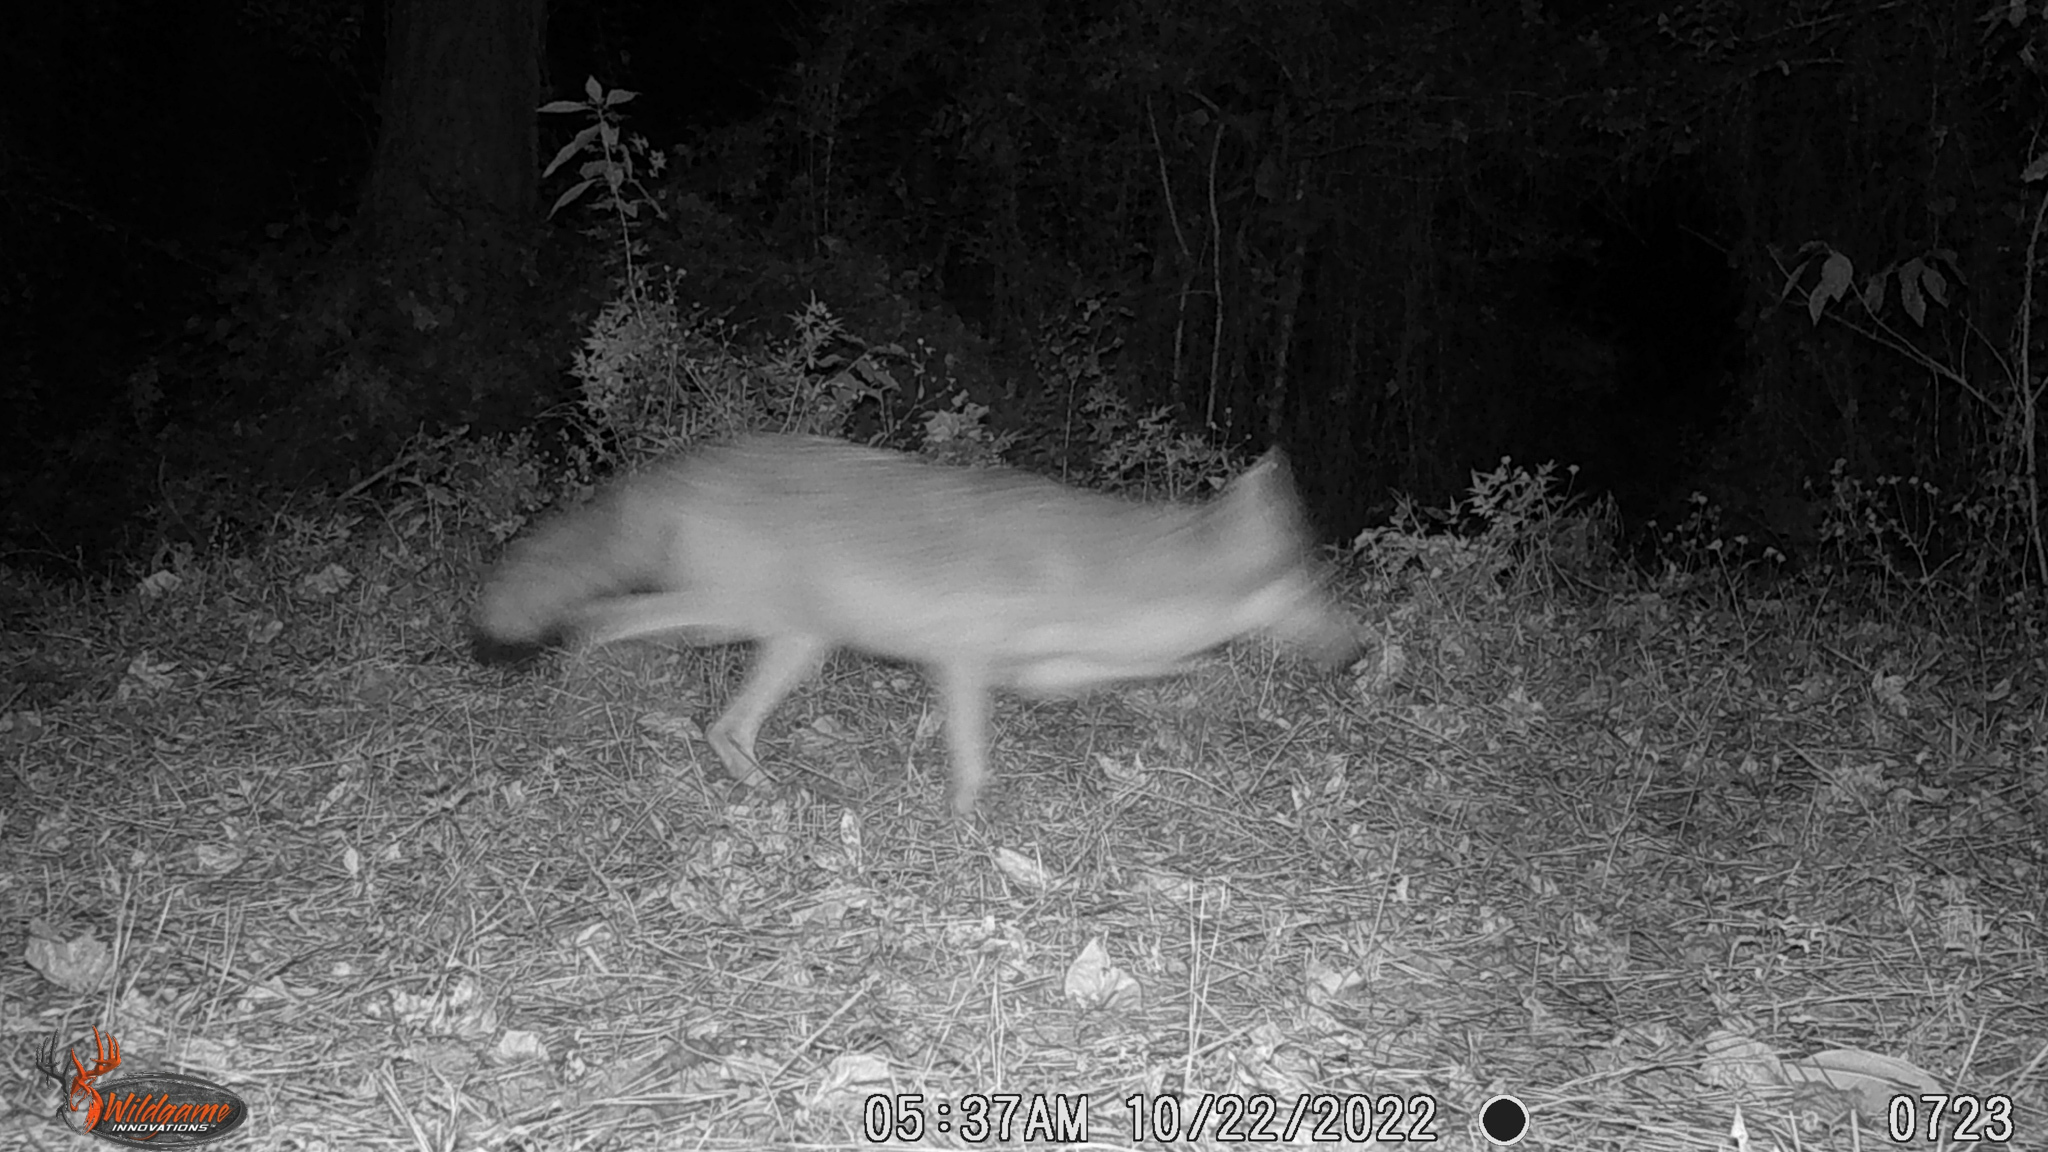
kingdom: Animalia
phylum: Chordata
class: Mammalia
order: Carnivora
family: Canidae
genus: Canis
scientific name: Canis latrans
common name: Coyote
